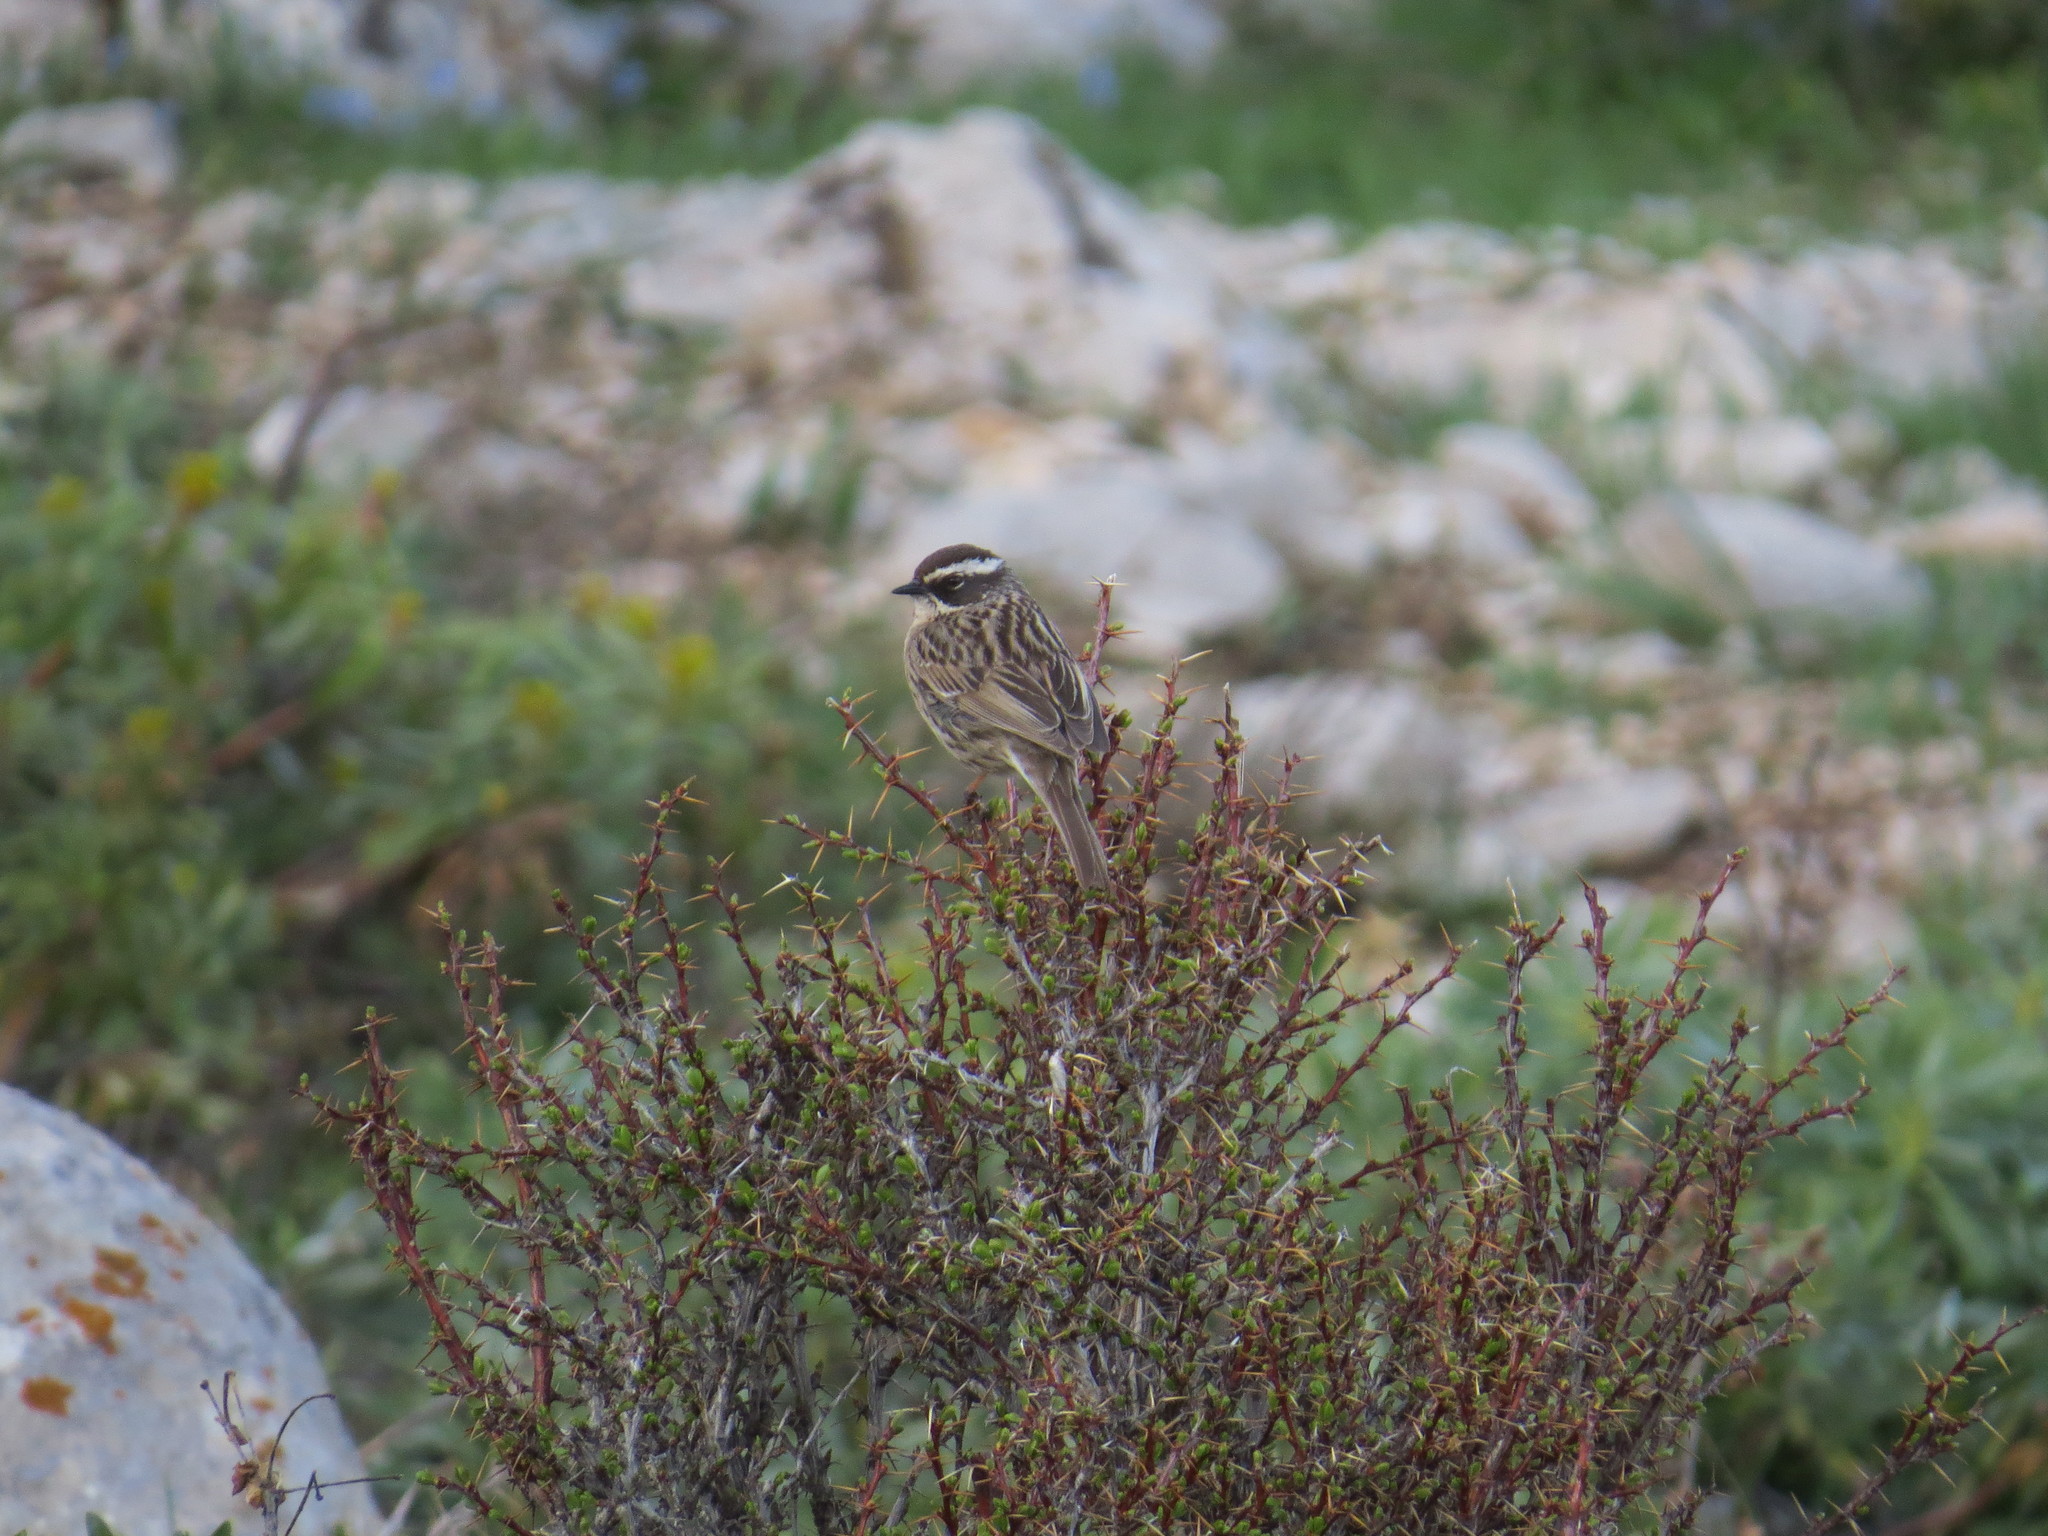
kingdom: Animalia
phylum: Chordata
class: Aves
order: Passeriformes
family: Prunellidae
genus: Prunella
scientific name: Prunella ocularis
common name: Radde's accentor
